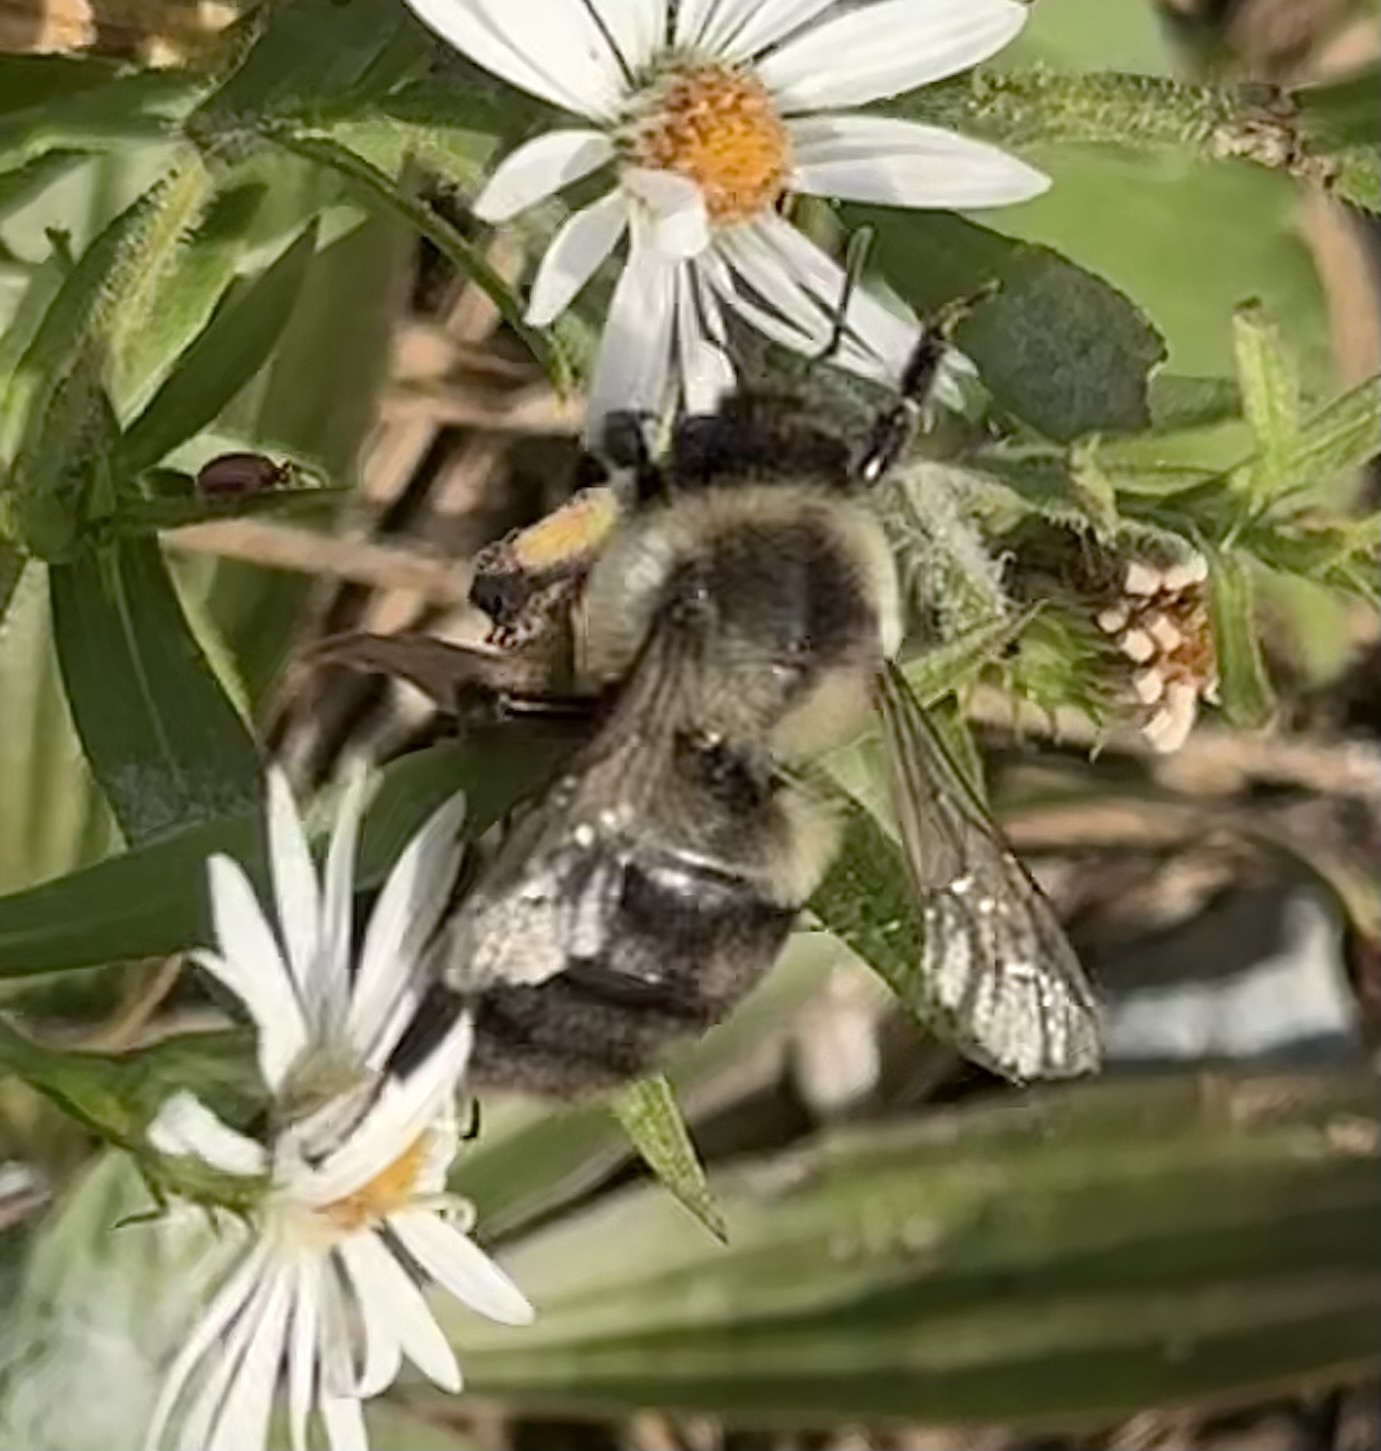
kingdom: Animalia
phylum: Arthropoda
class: Insecta
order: Hymenoptera
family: Apidae
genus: Bombus
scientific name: Bombus impatiens
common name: Common eastern bumble bee
